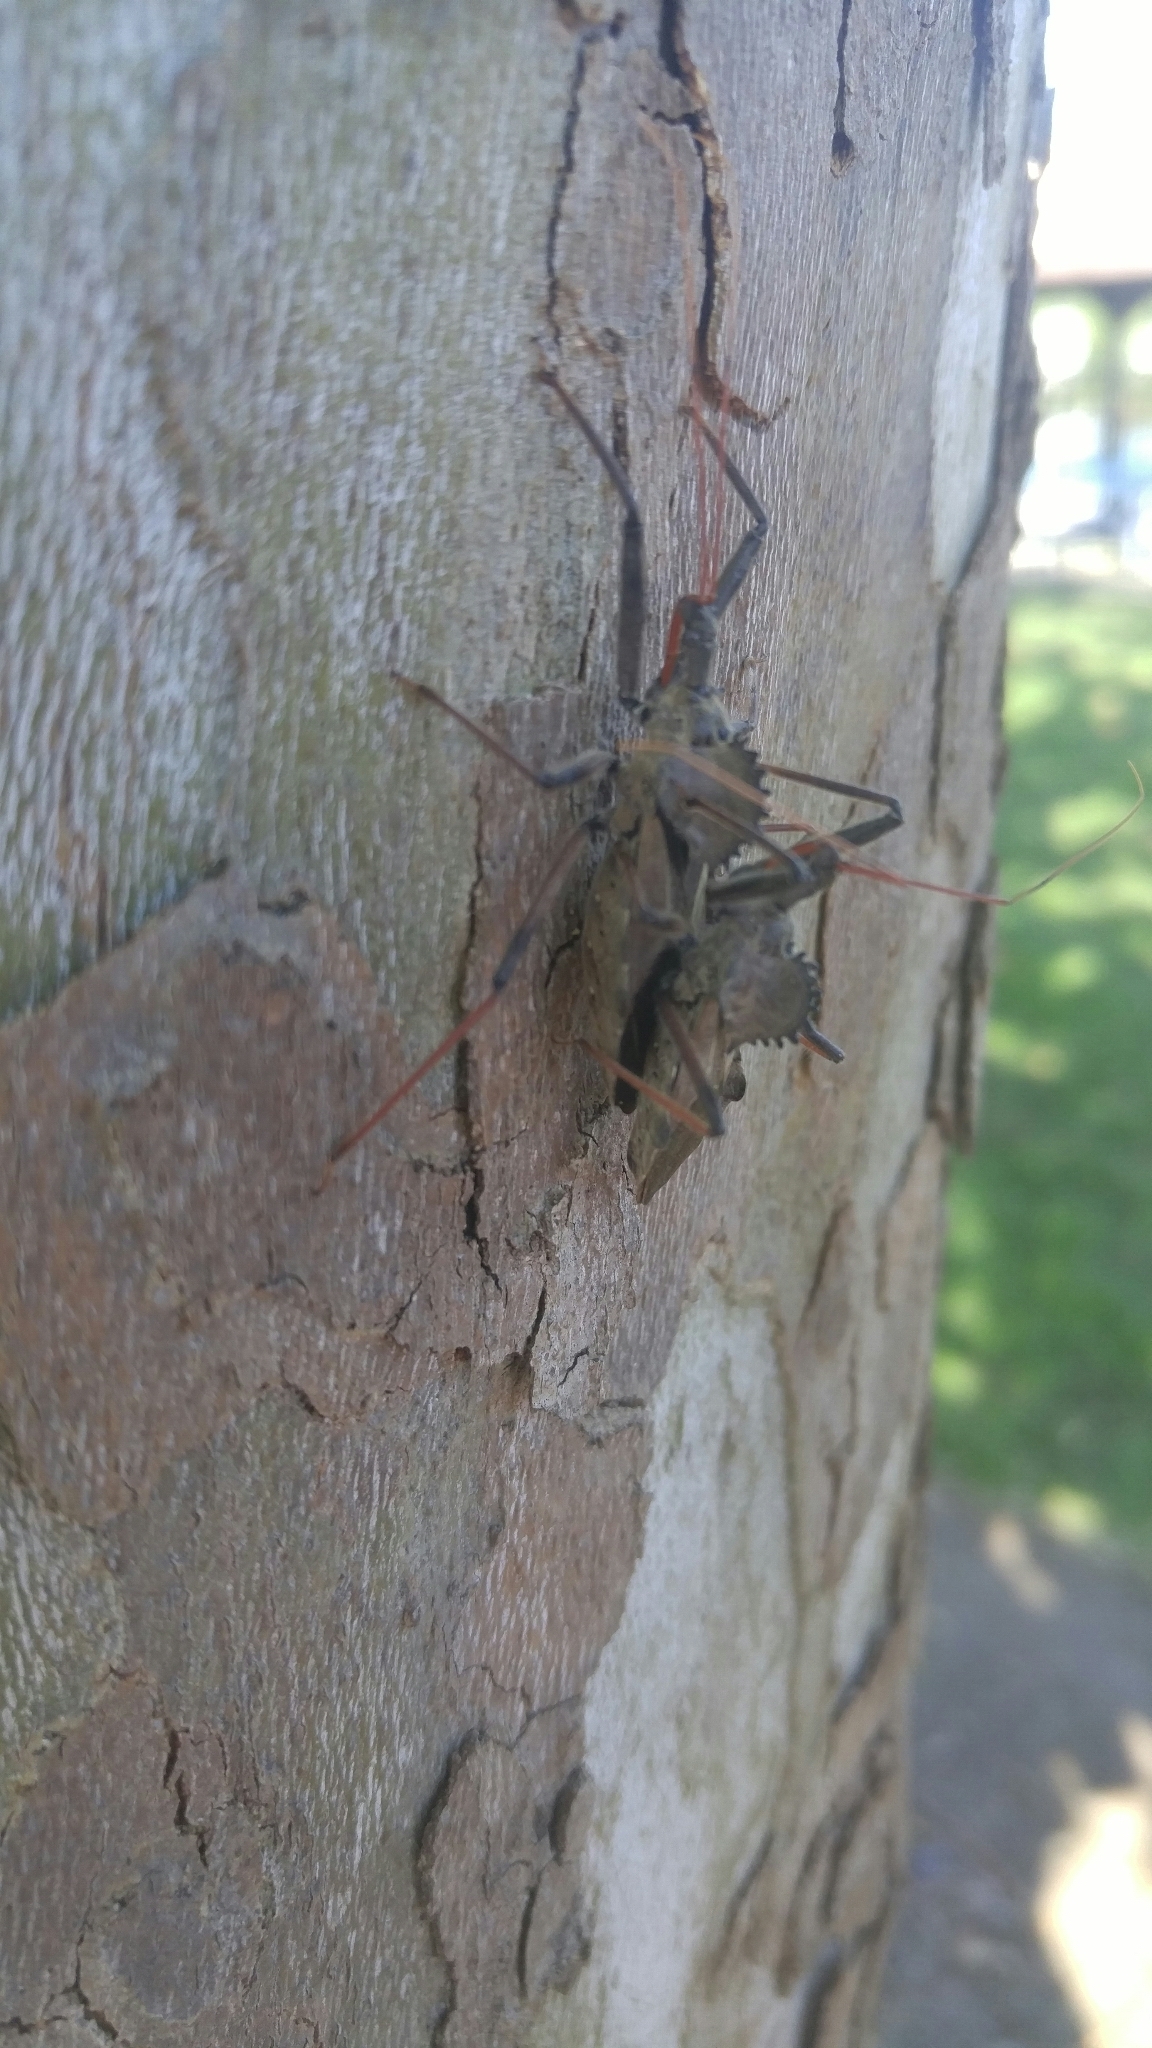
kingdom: Animalia
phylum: Arthropoda
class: Insecta
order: Hemiptera
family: Reduviidae
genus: Arilus
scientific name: Arilus cristatus
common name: North american wheel bug
